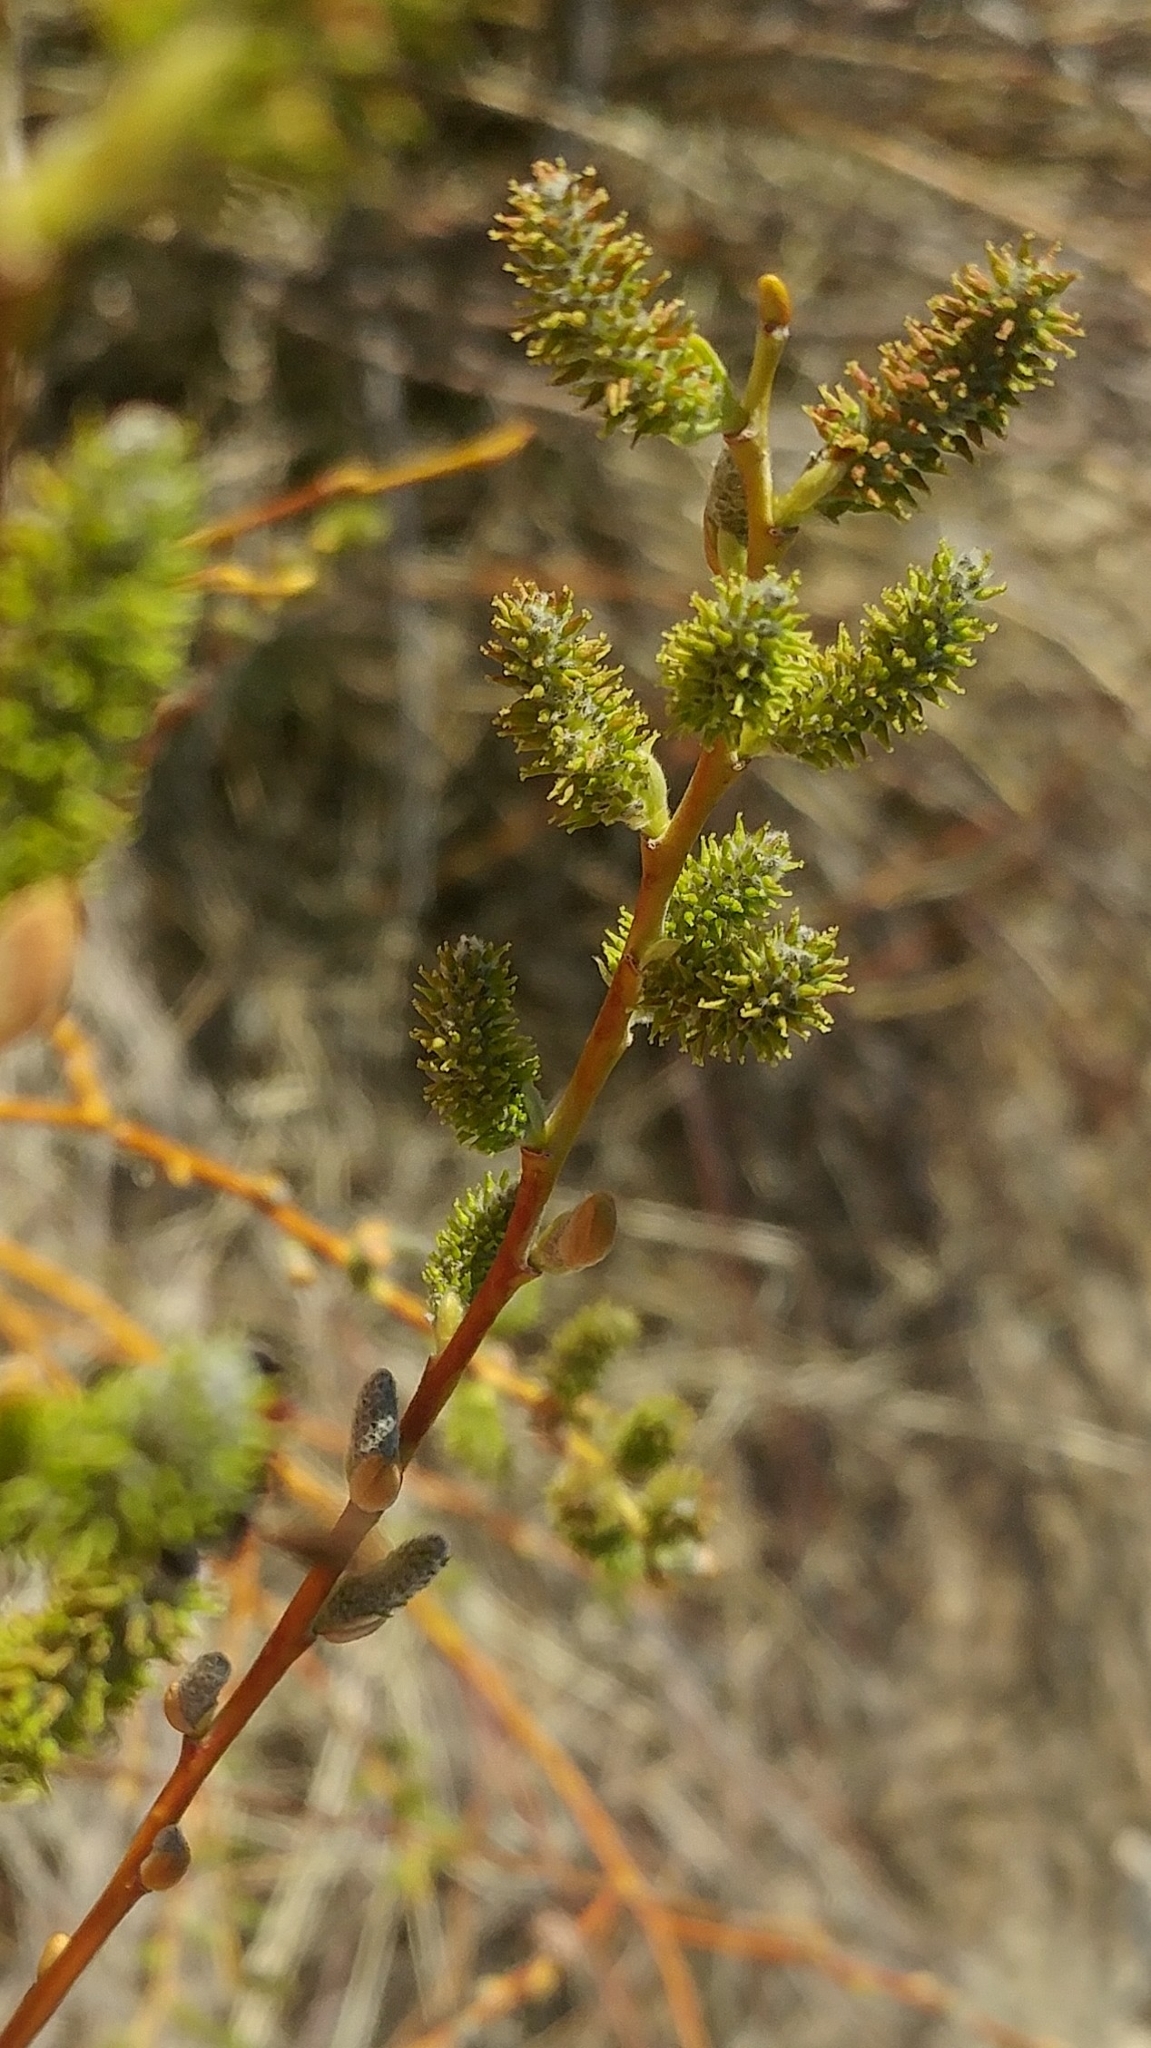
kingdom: Plantae
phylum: Tracheophyta
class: Magnoliopsida
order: Malpighiales
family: Salicaceae
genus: Salix
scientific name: Salix lasiolepis
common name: Arroyo willow
